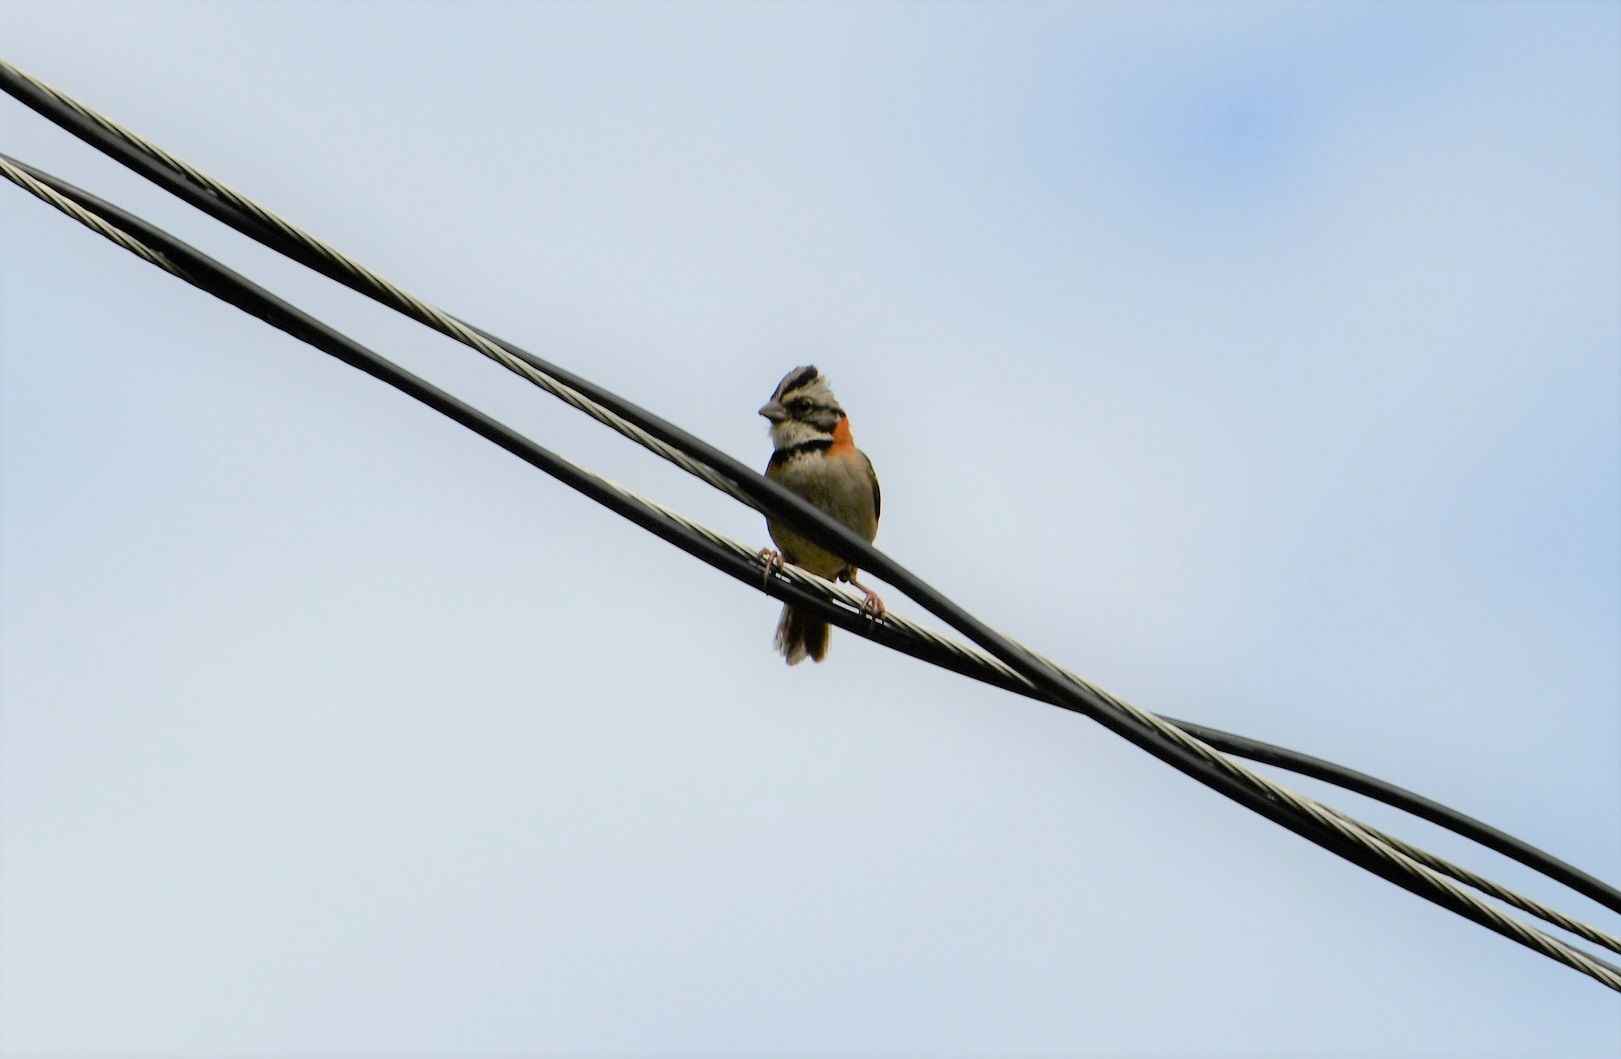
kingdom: Animalia
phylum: Chordata
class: Aves
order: Passeriformes
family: Passerellidae
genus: Zonotrichia
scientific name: Zonotrichia capensis
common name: Rufous-collared sparrow
